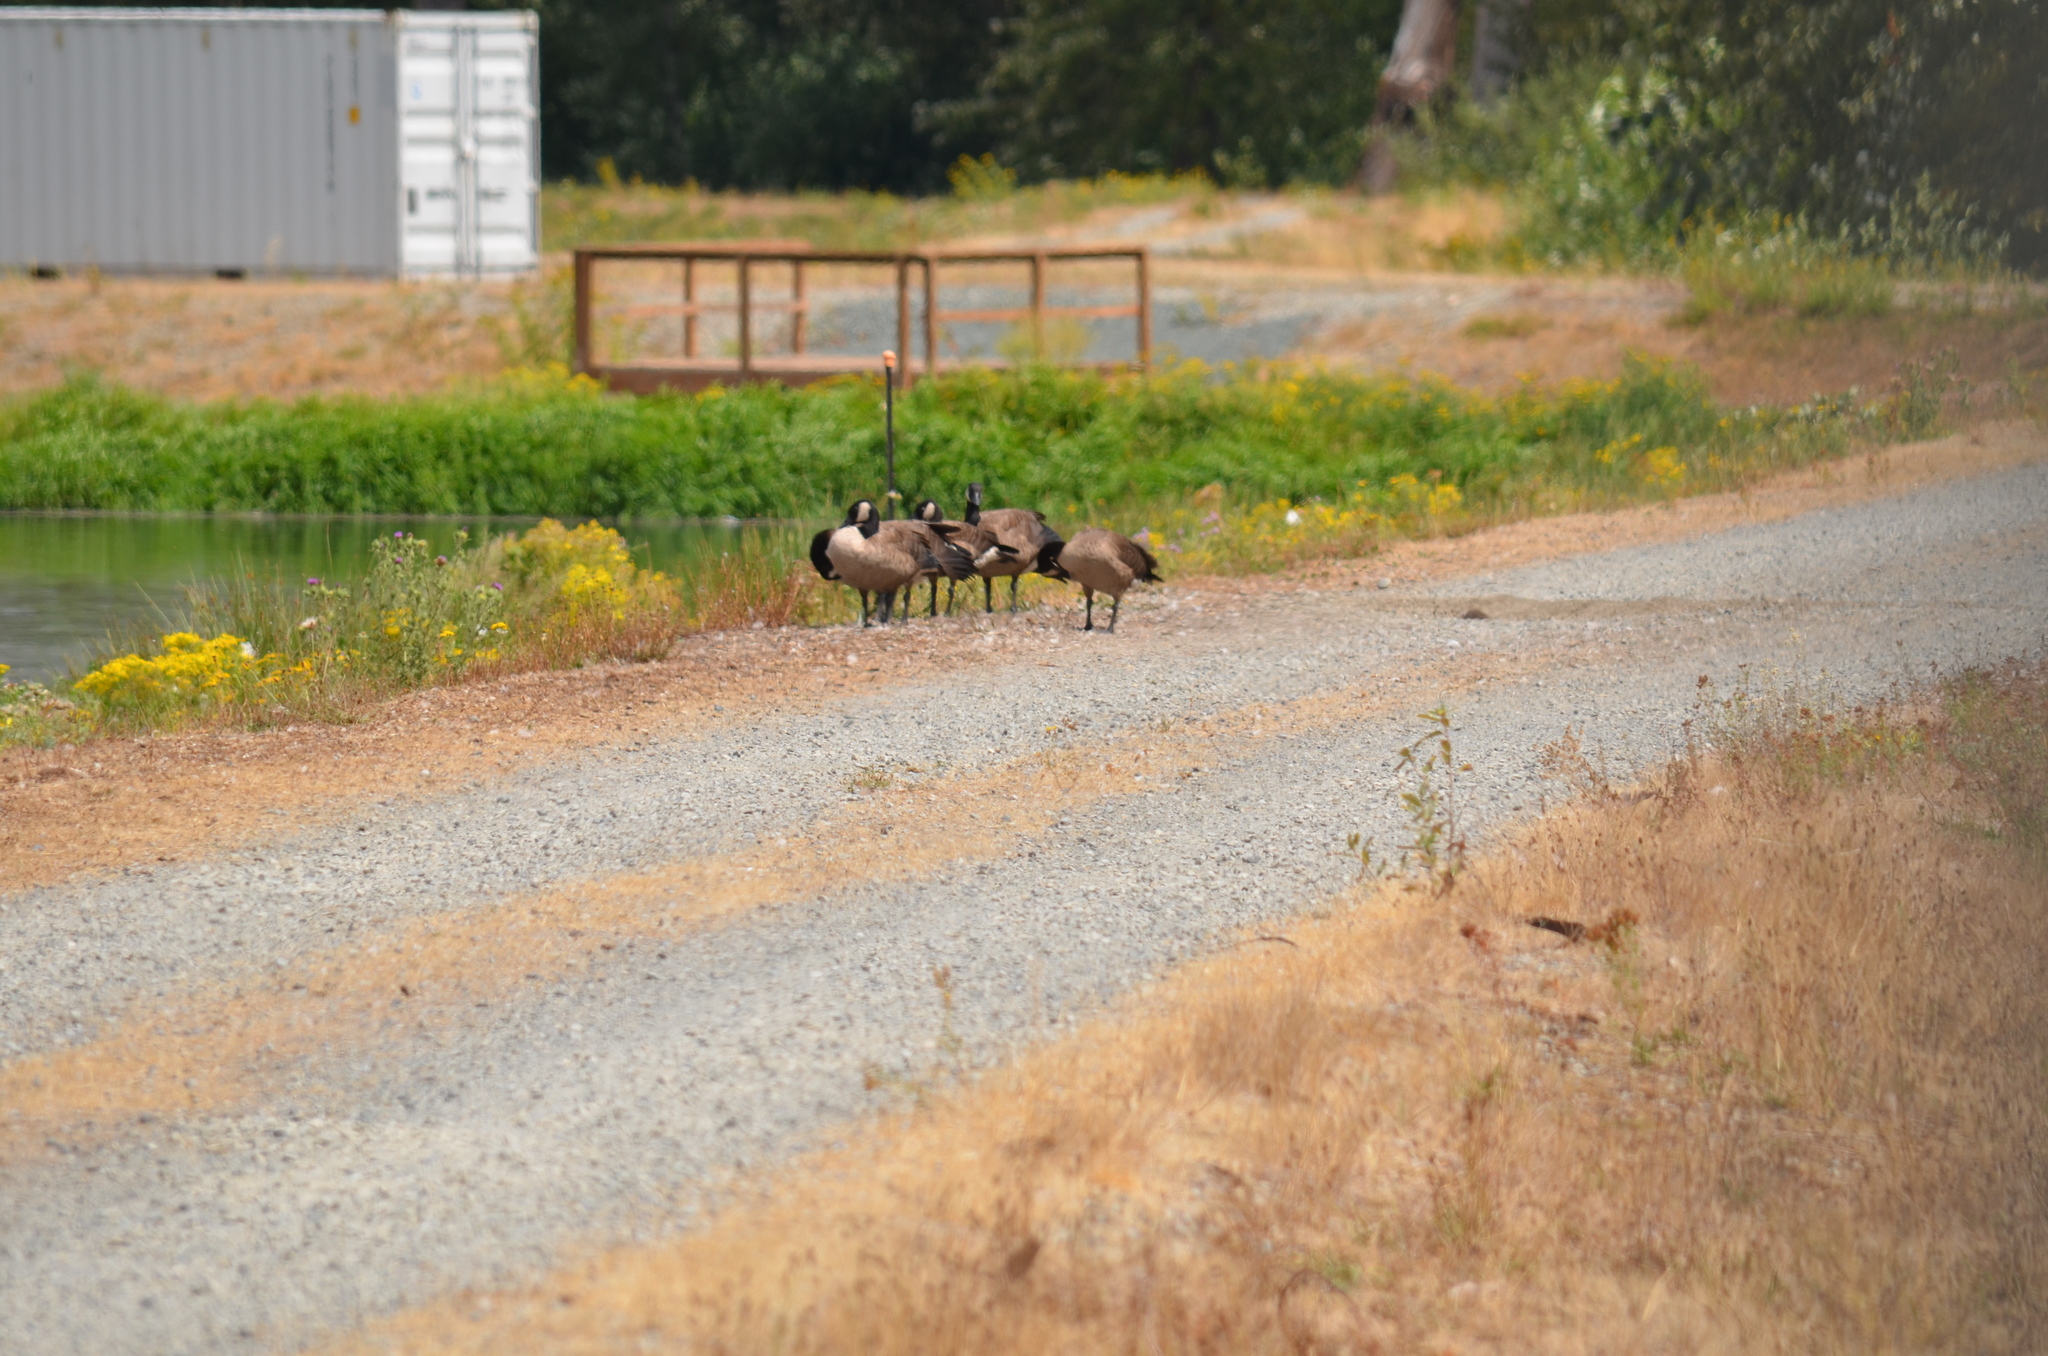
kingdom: Animalia
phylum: Chordata
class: Aves
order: Anseriformes
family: Anatidae
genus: Branta
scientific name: Branta canadensis
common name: Canada goose
